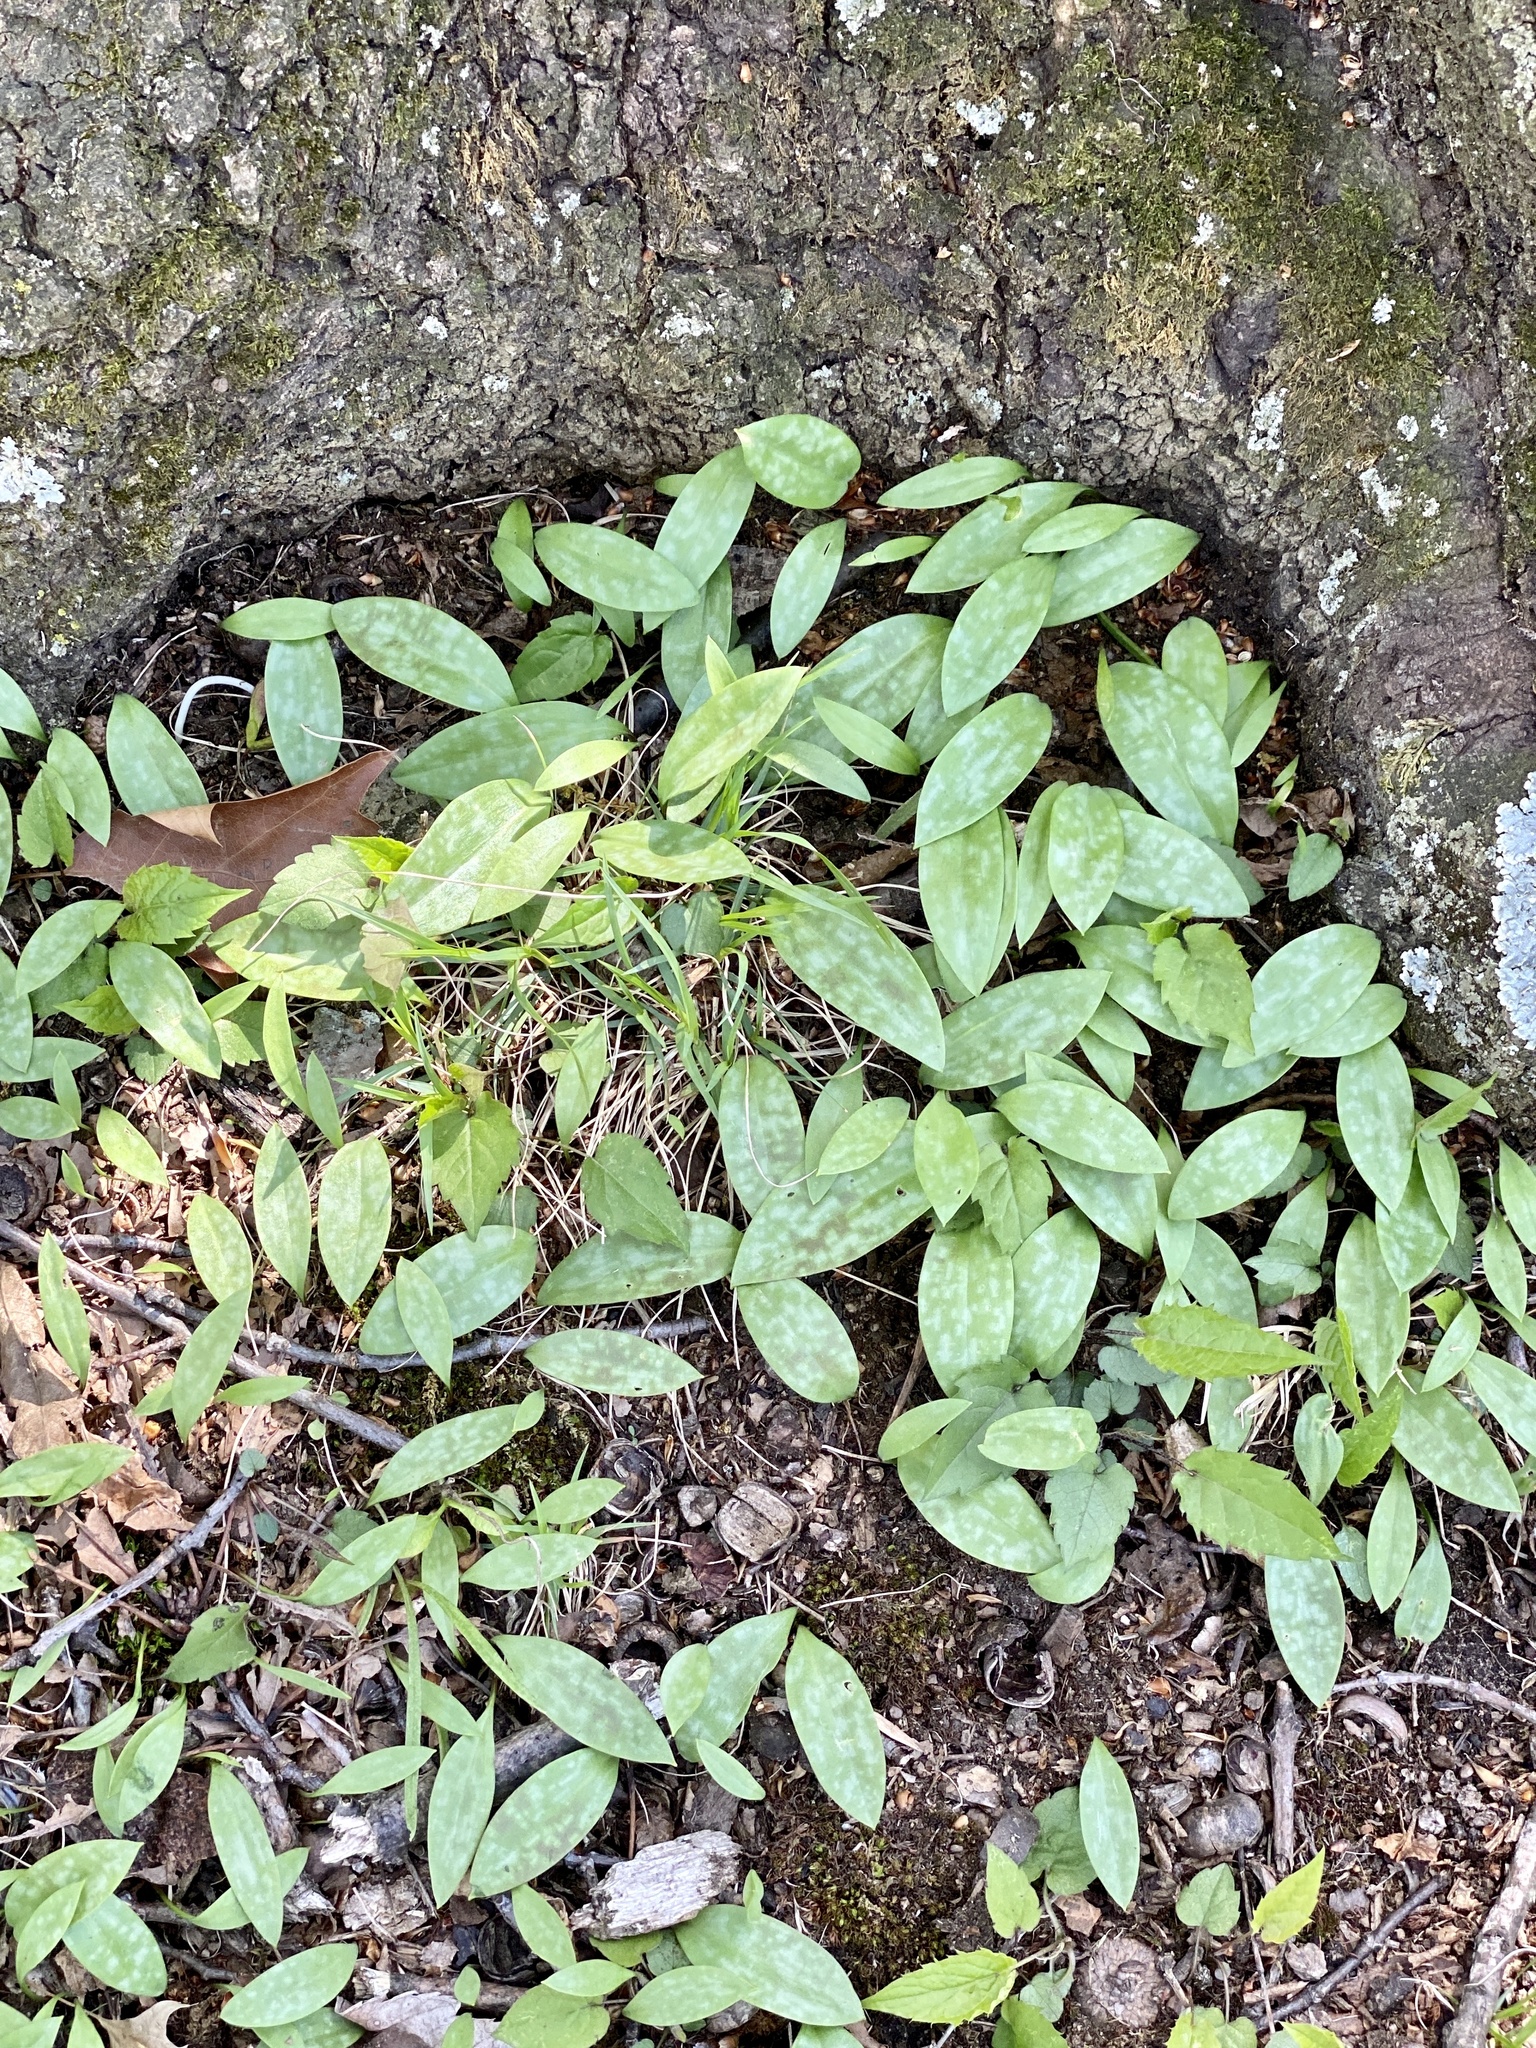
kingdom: Plantae
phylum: Tracheophyta
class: Liliopsida
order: Liliales
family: Liliaceae
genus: Erythronium
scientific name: Erythronium americanum
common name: Yellow adder's-tongue
